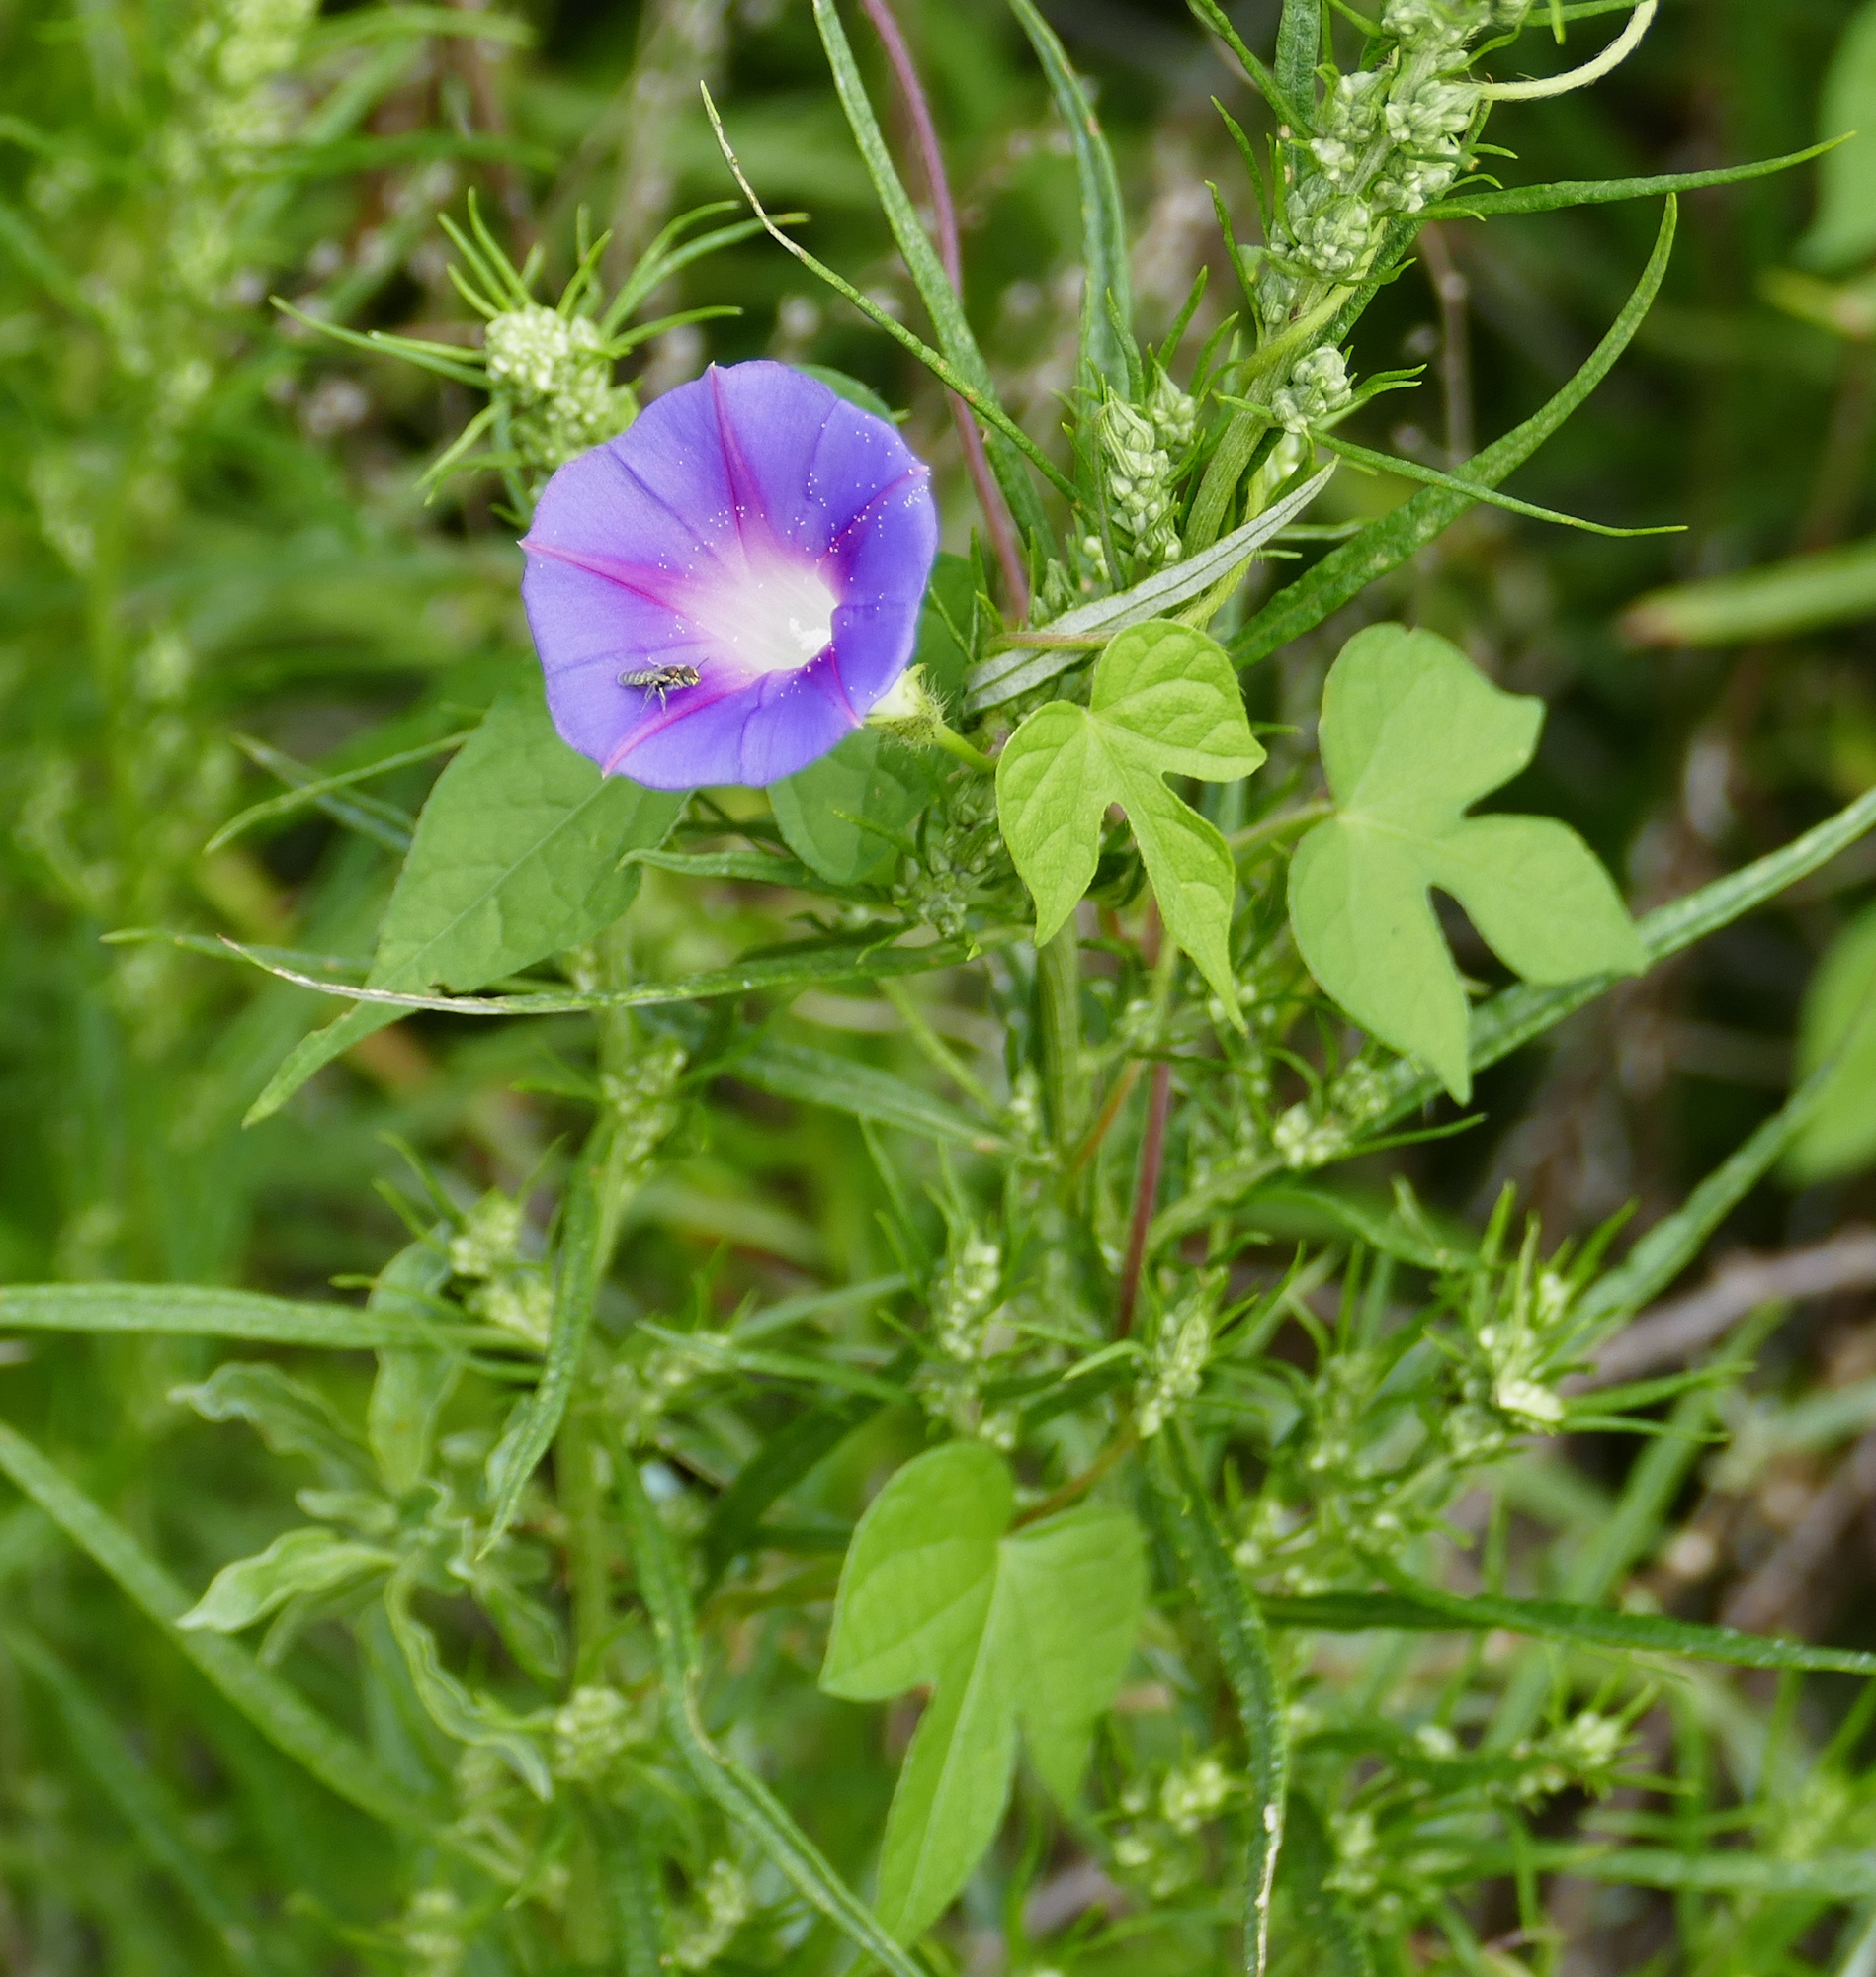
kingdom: Plantae
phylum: Tracheophyta
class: Magnoliopsida
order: Solanales
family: Convolvulaceae
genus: Ipomoea
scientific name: Ipomoea purpurea
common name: Common morning-glory
